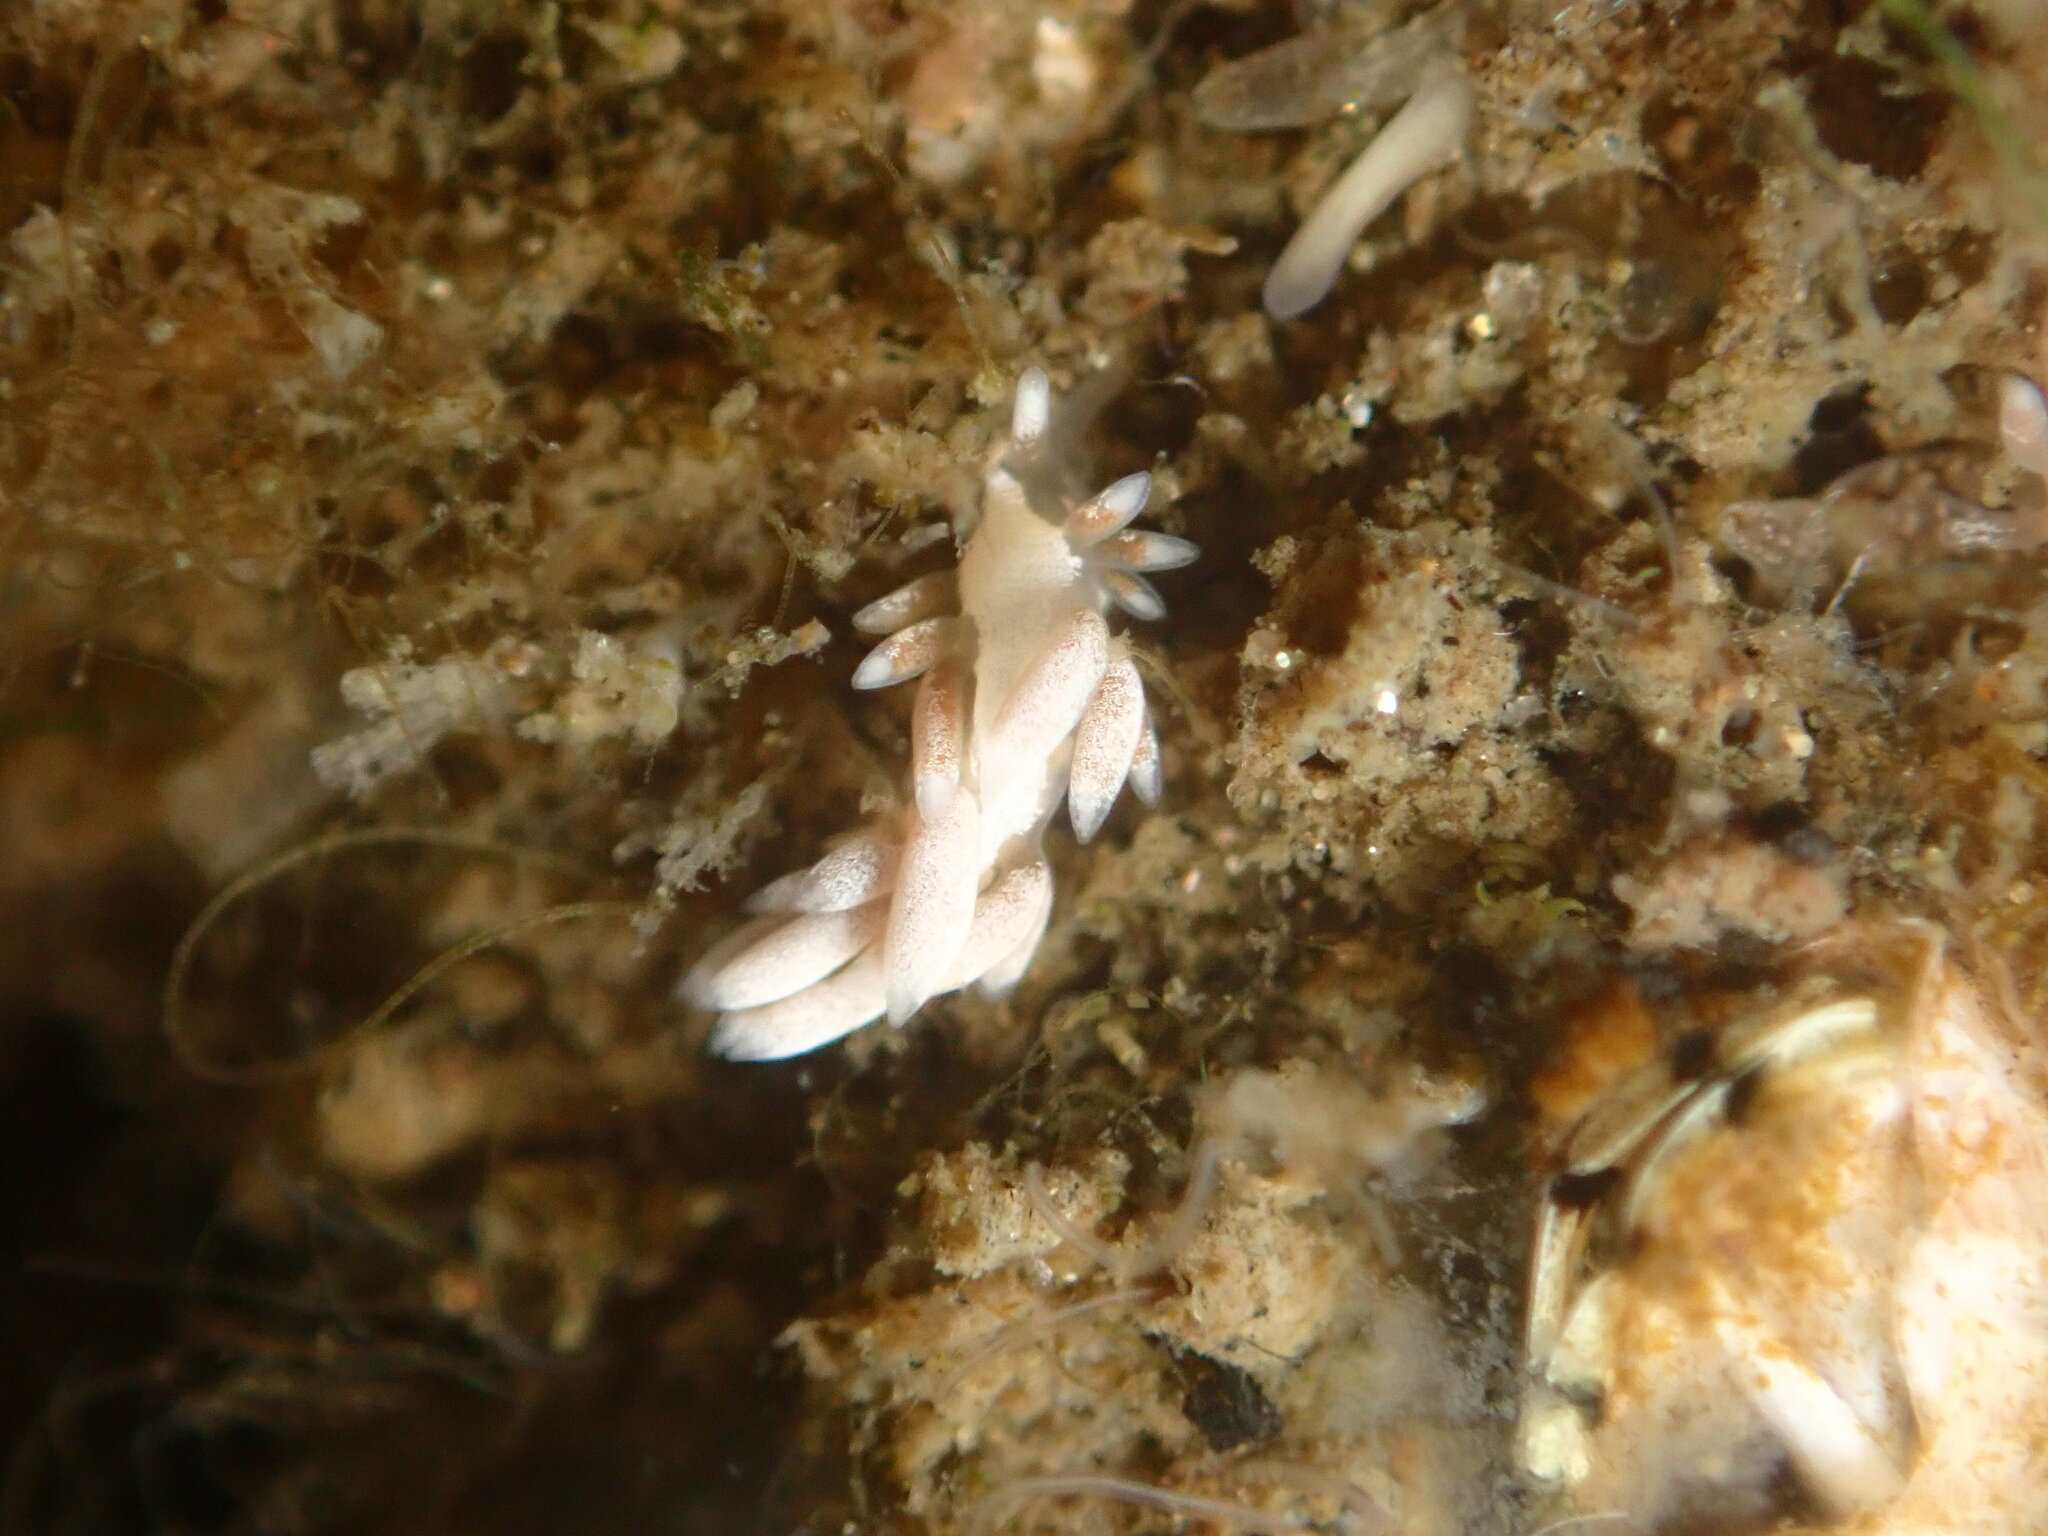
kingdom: Animalia
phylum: Mollusca
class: Gastropoda
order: Nudibranchia
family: Trinchesiidae
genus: Trinchesia
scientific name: Trinchesia albocrusta
